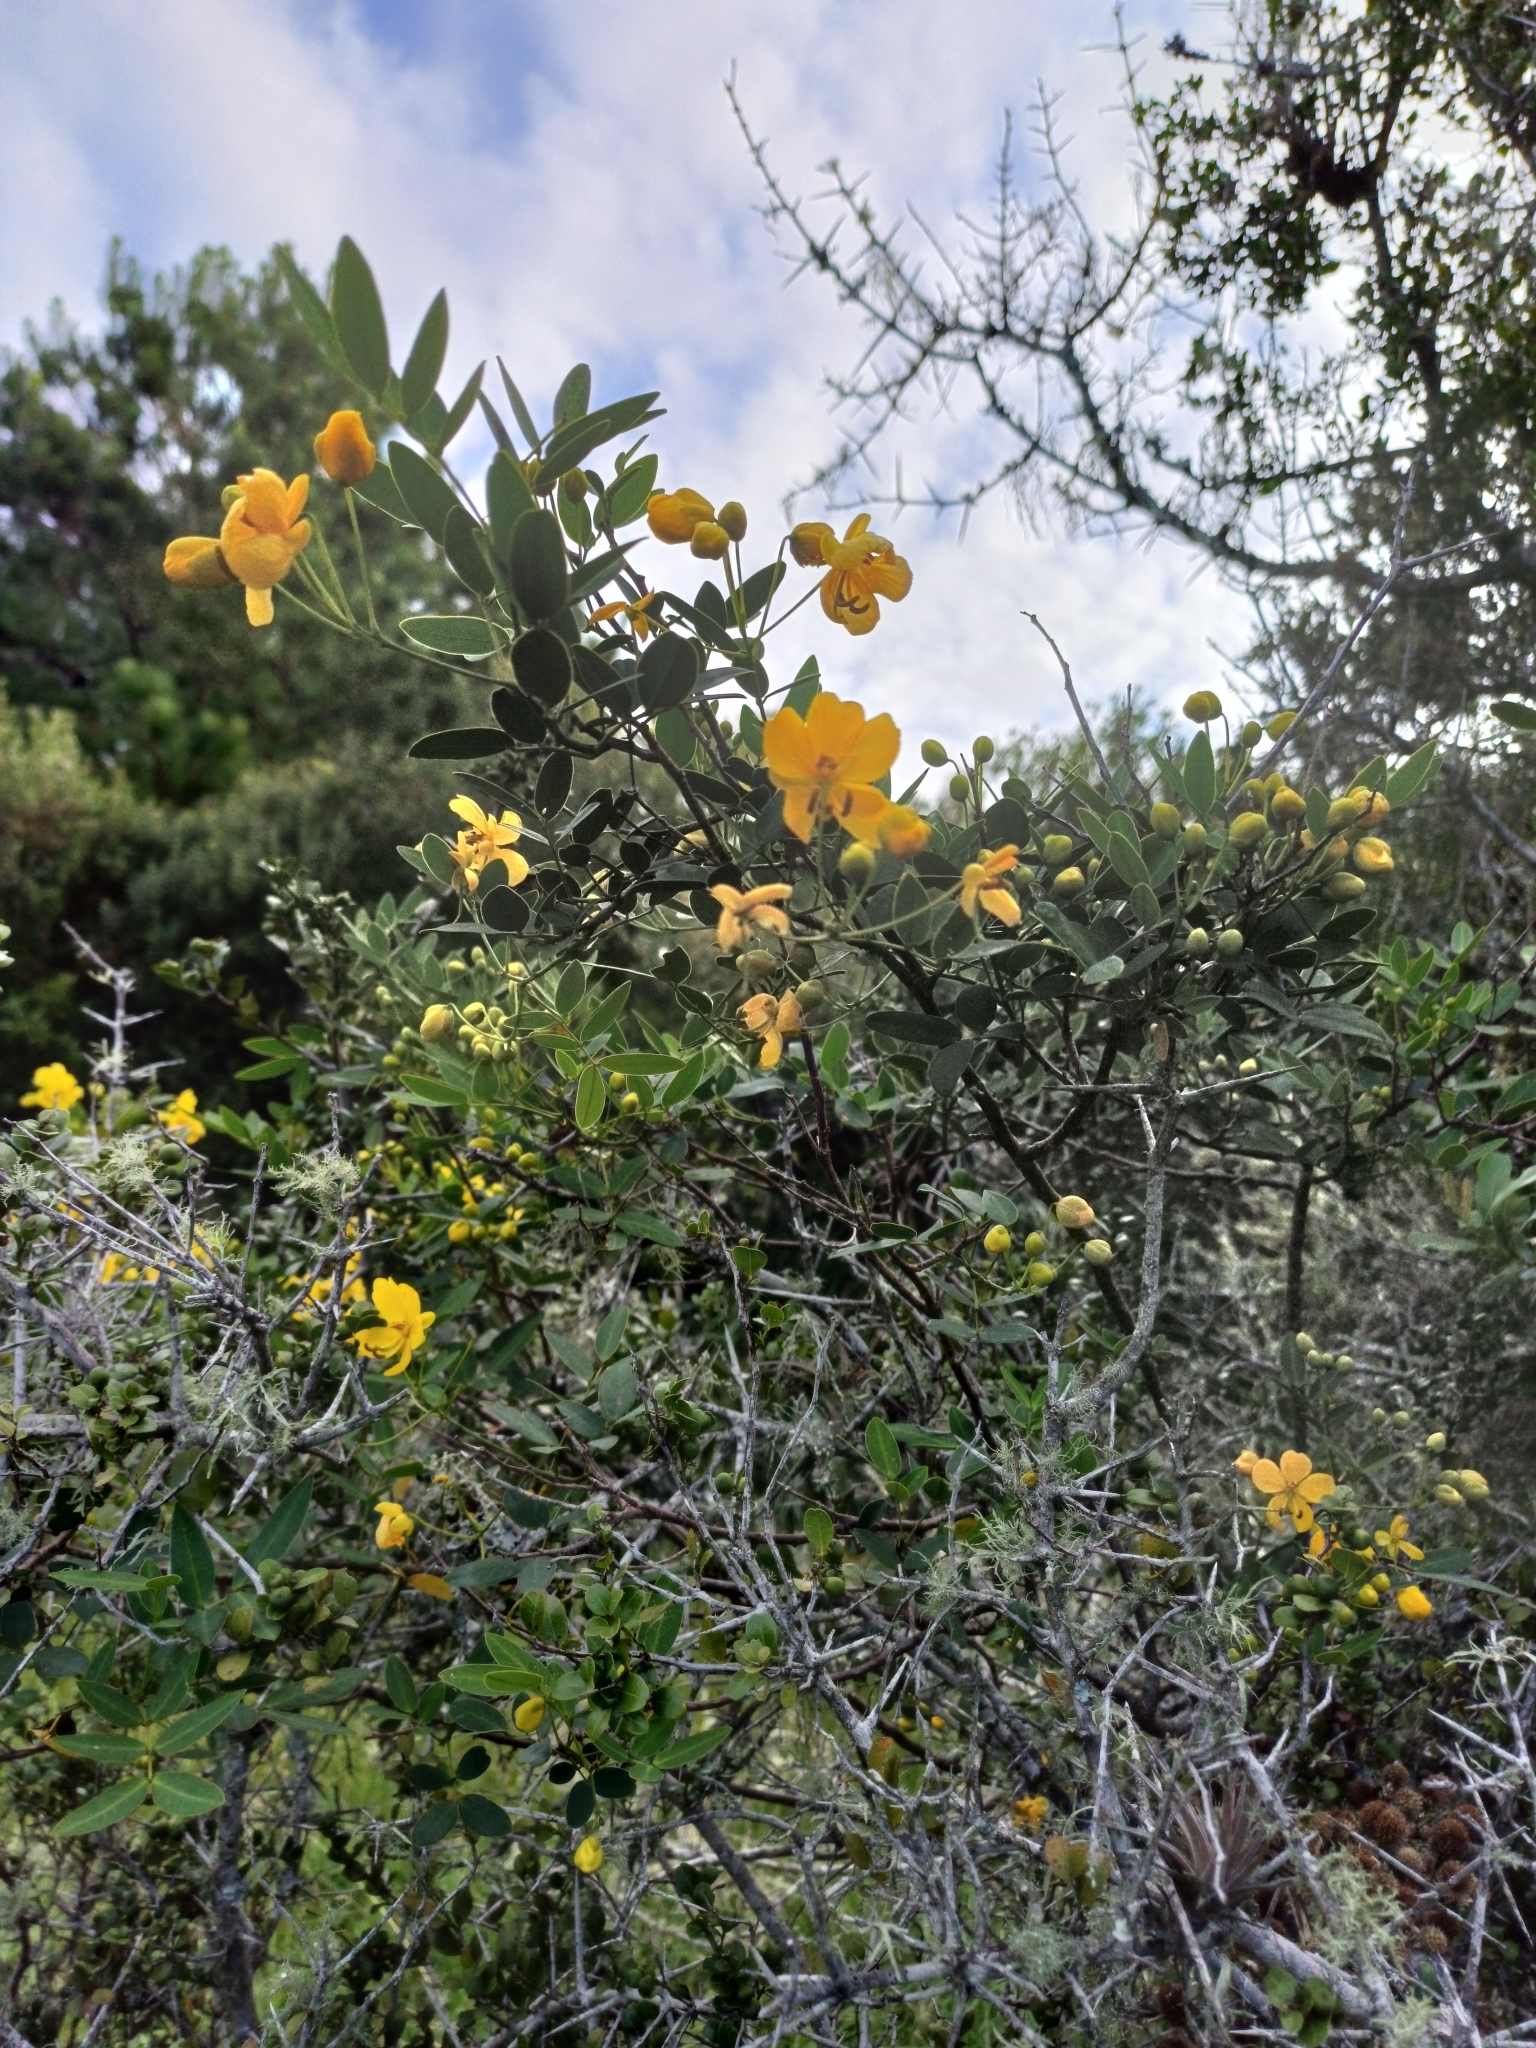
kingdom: Plantae
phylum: Tracheophyta
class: Magnoliopsida
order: Fabales
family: Fabaceae
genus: Senna
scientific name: Senna corymbosa
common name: Argentine senna
